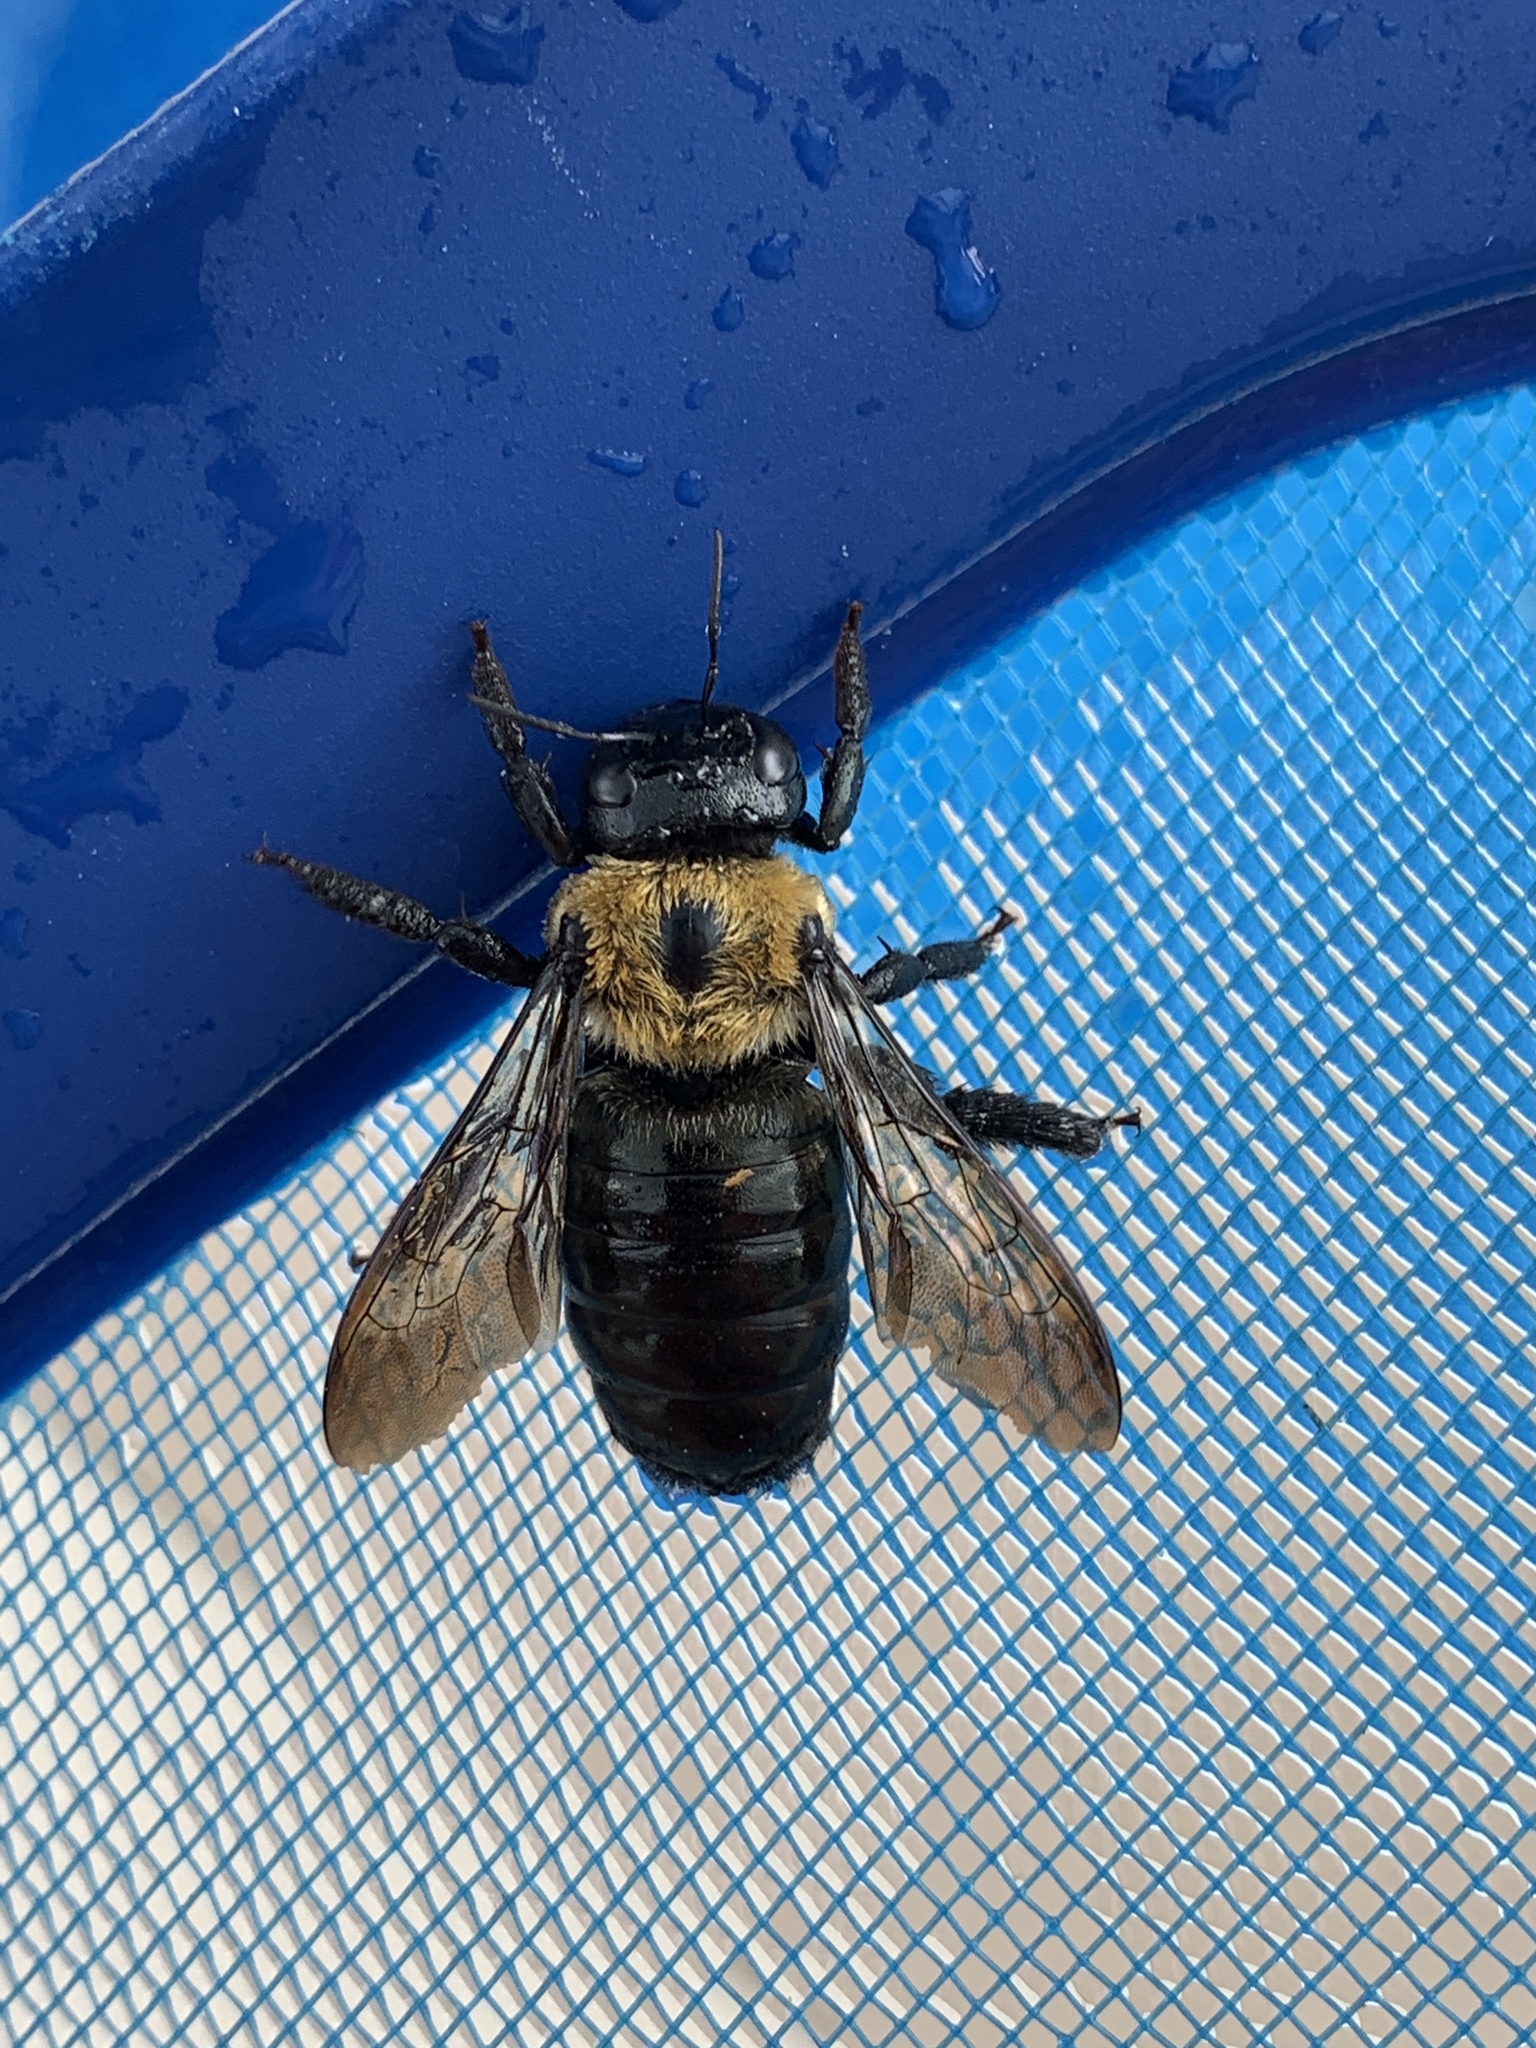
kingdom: Animalia
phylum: Arthropoda
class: Insecta
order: Hymenoptera
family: Apidae
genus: Xylocopa
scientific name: Xylocopa virginica
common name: Carpenter bee
